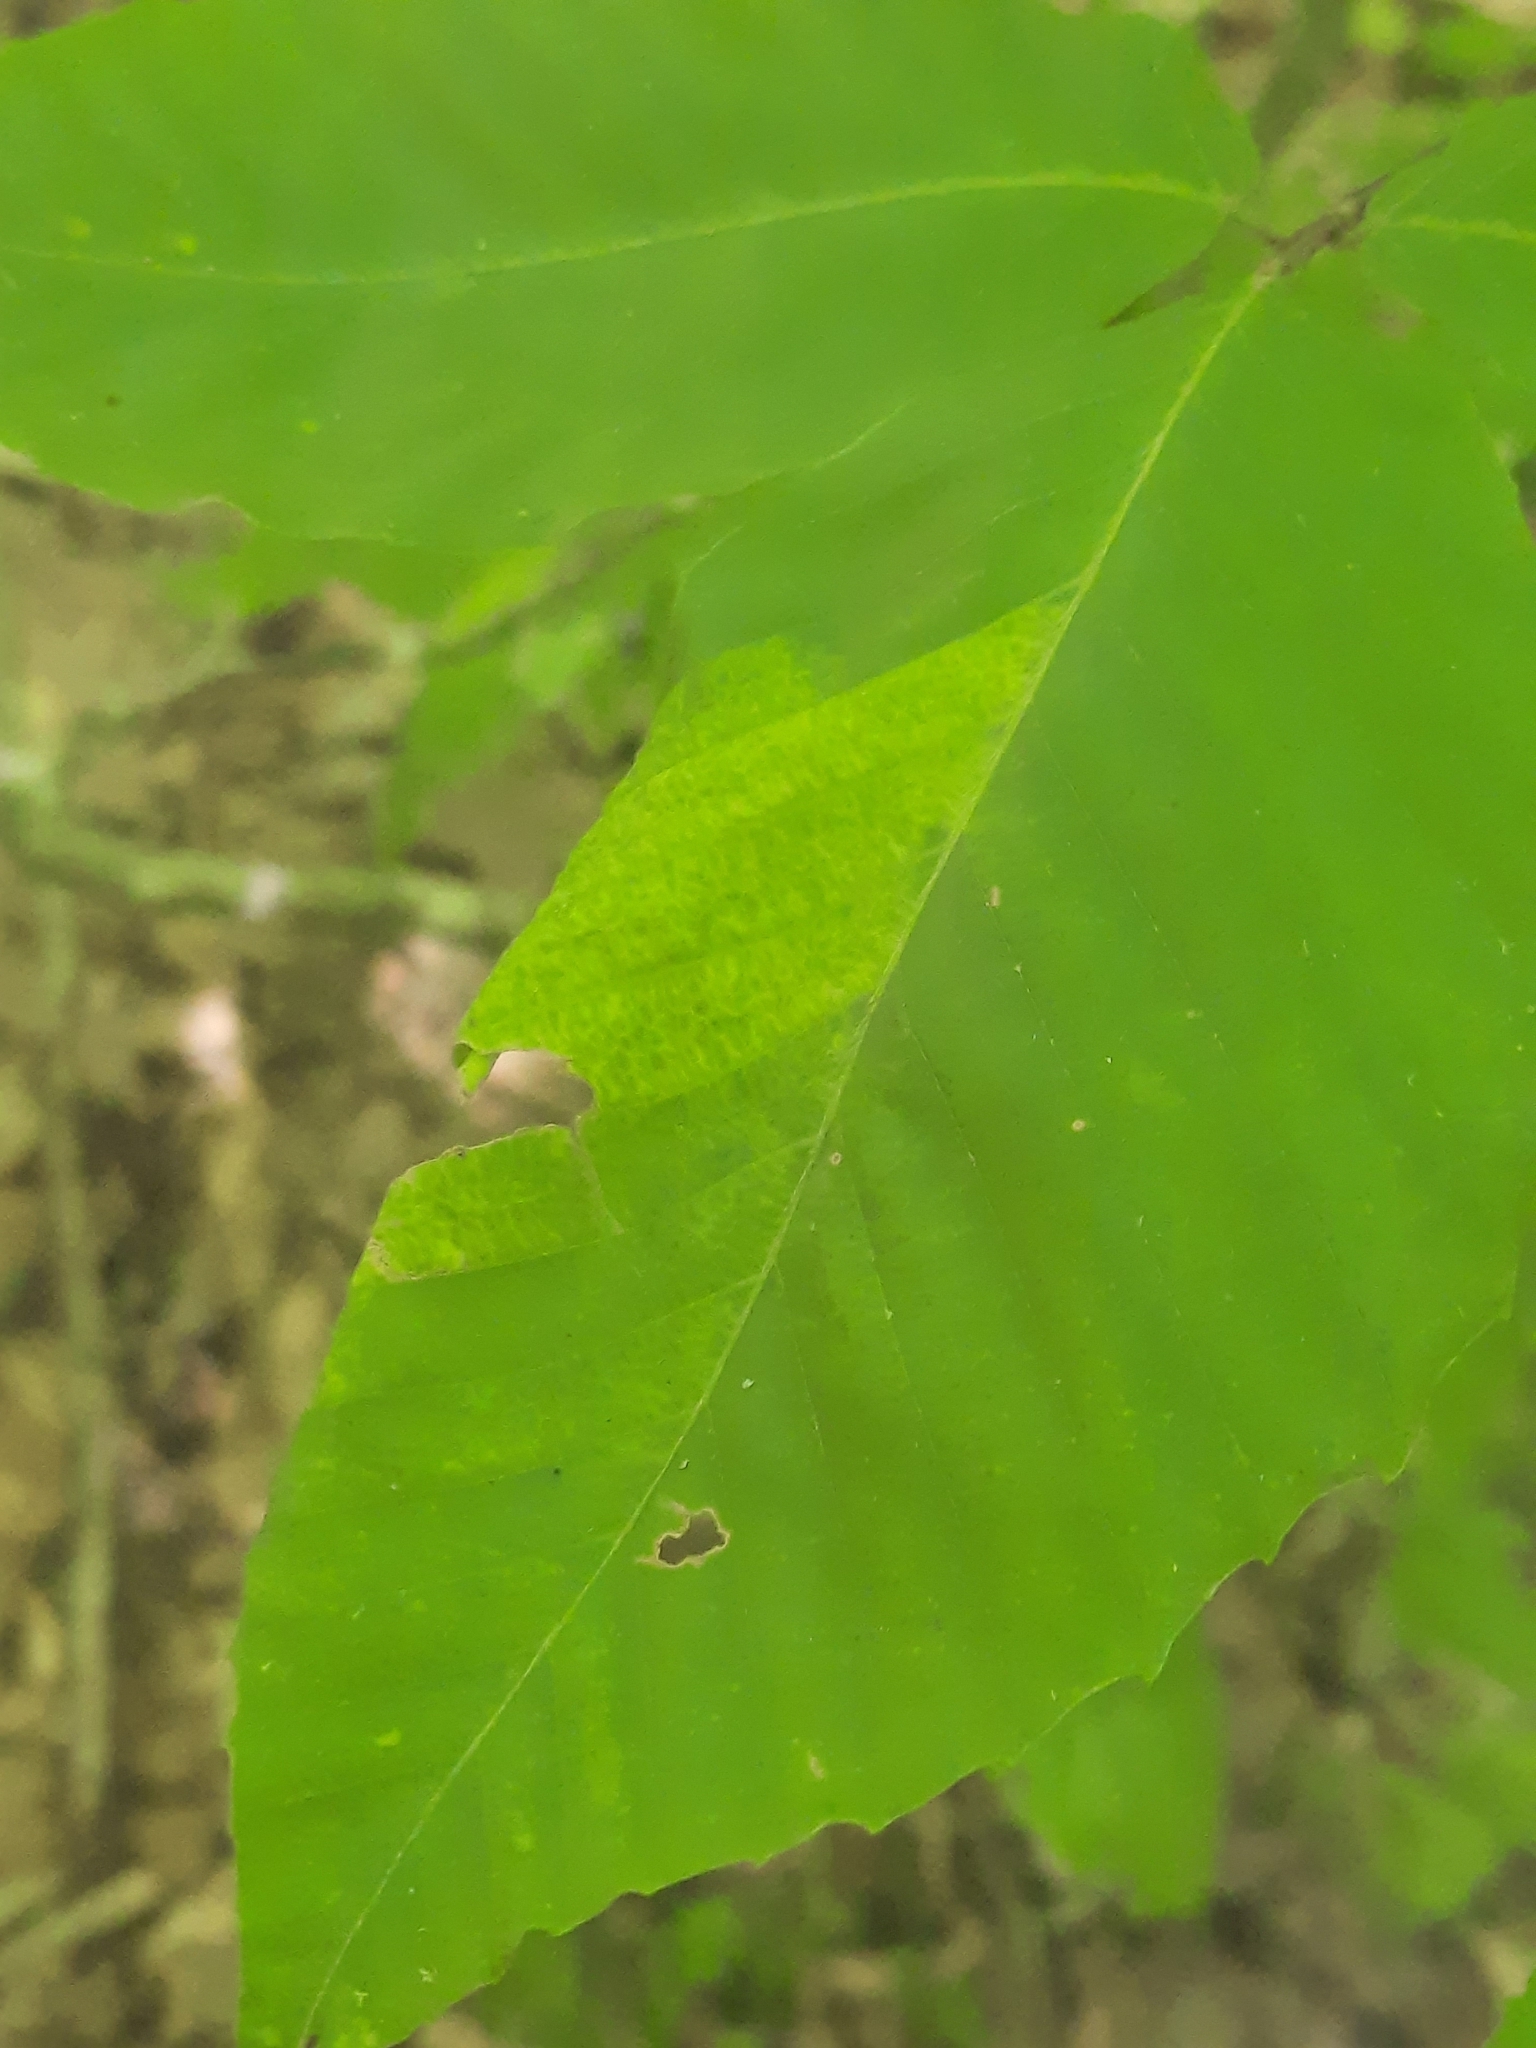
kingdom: Animalia
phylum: Nematoda
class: Chromadorea
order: Rhabditida
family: Anguinidae
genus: Litylenchus
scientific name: Litylenchus crenatae
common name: Beech leaf disease
